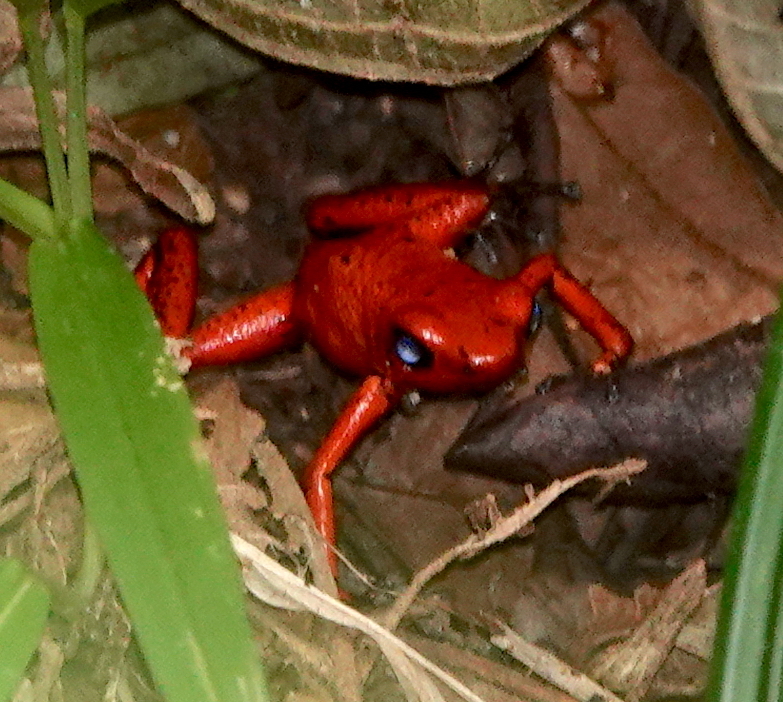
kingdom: Animalia
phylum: Chordata
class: Amphibia
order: Anura
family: Dendrobatidae
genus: Oophaga
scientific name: Oophaga pumilio
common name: Flaming poison frog
